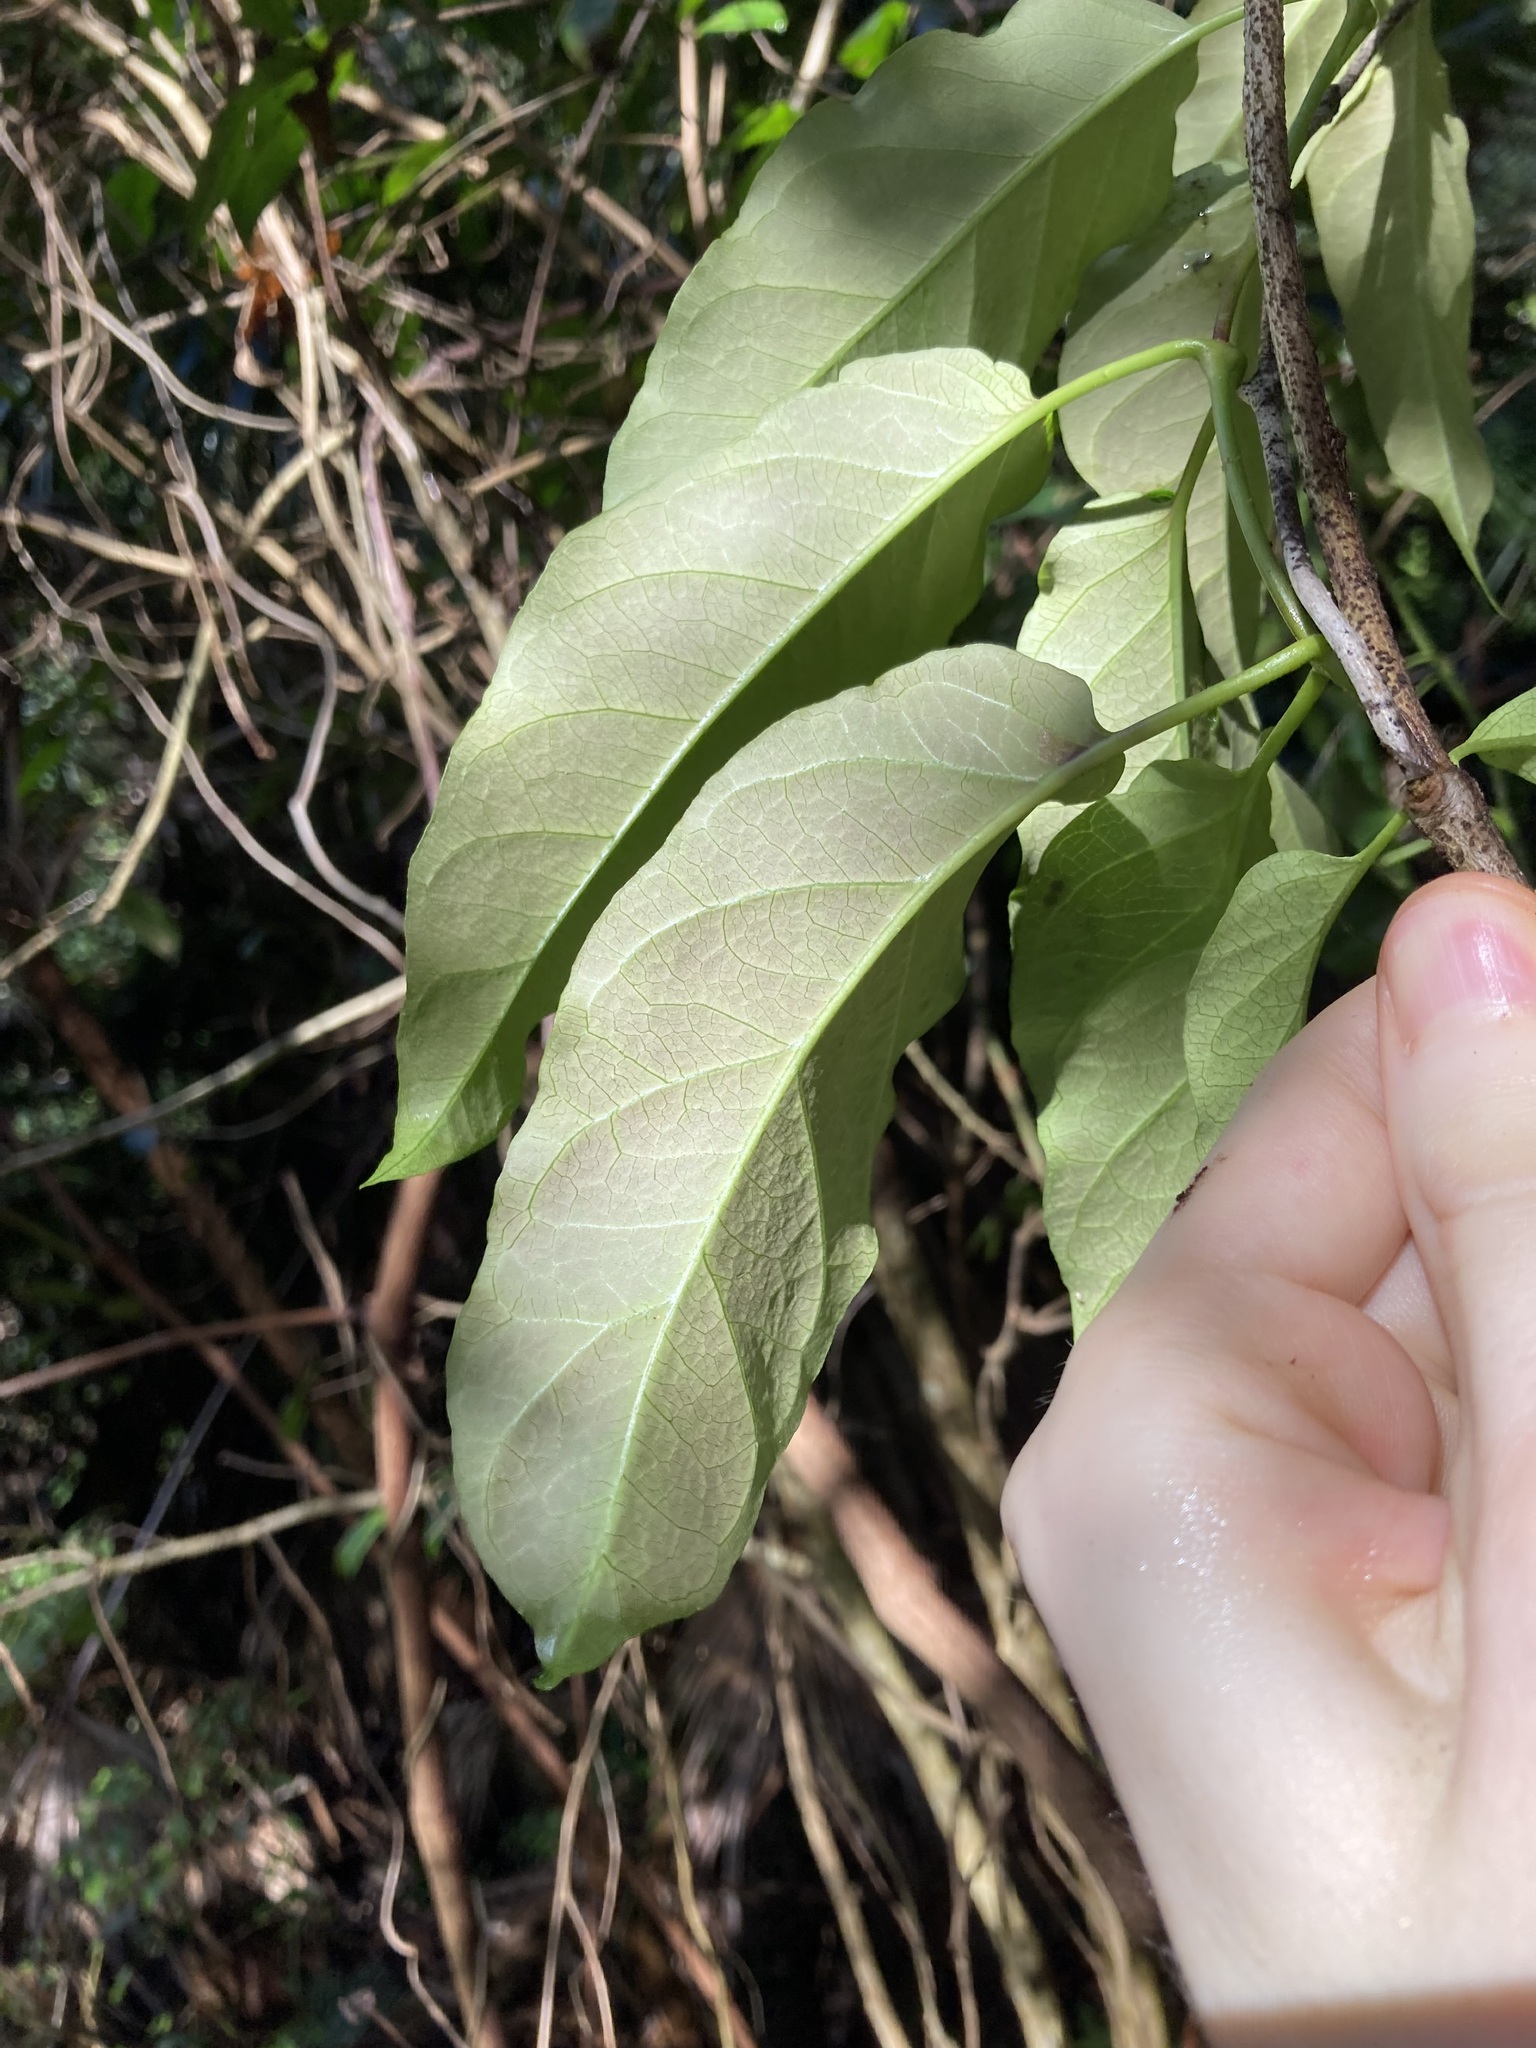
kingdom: Plantae
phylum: Tracheophyta
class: Magnoliopsida
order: Gentianales
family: Apocynaceae
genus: Parsonsia
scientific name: Parsonsia straminea
